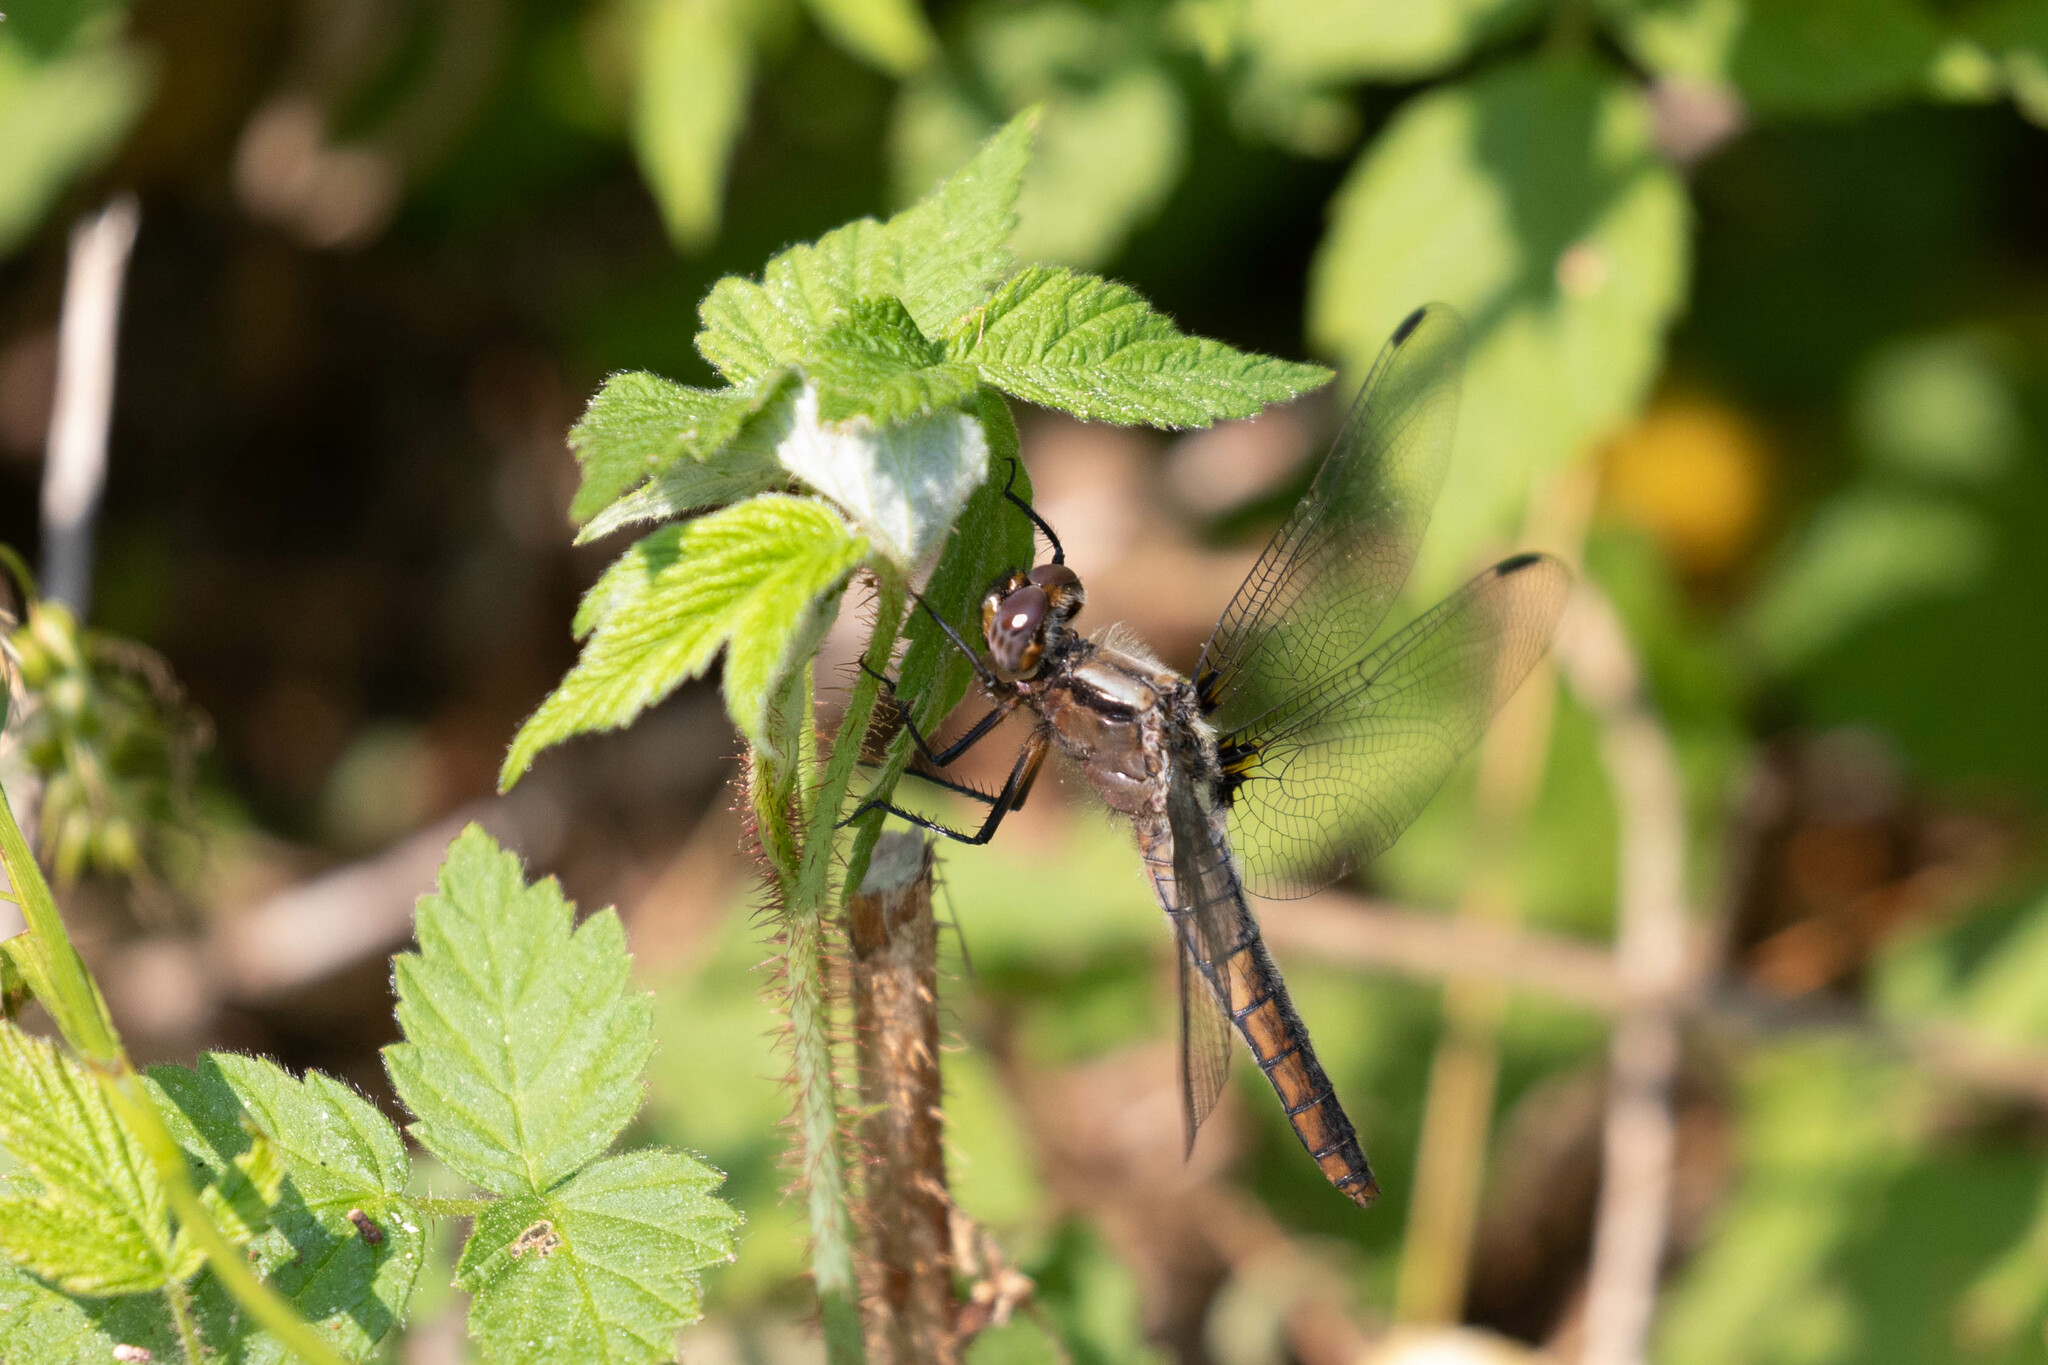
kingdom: Animalia
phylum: Arthropoda
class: Insecta
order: Odonata
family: Libellulidae
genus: Ladona
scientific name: Ladona julia
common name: Chalk-fronted corporal
